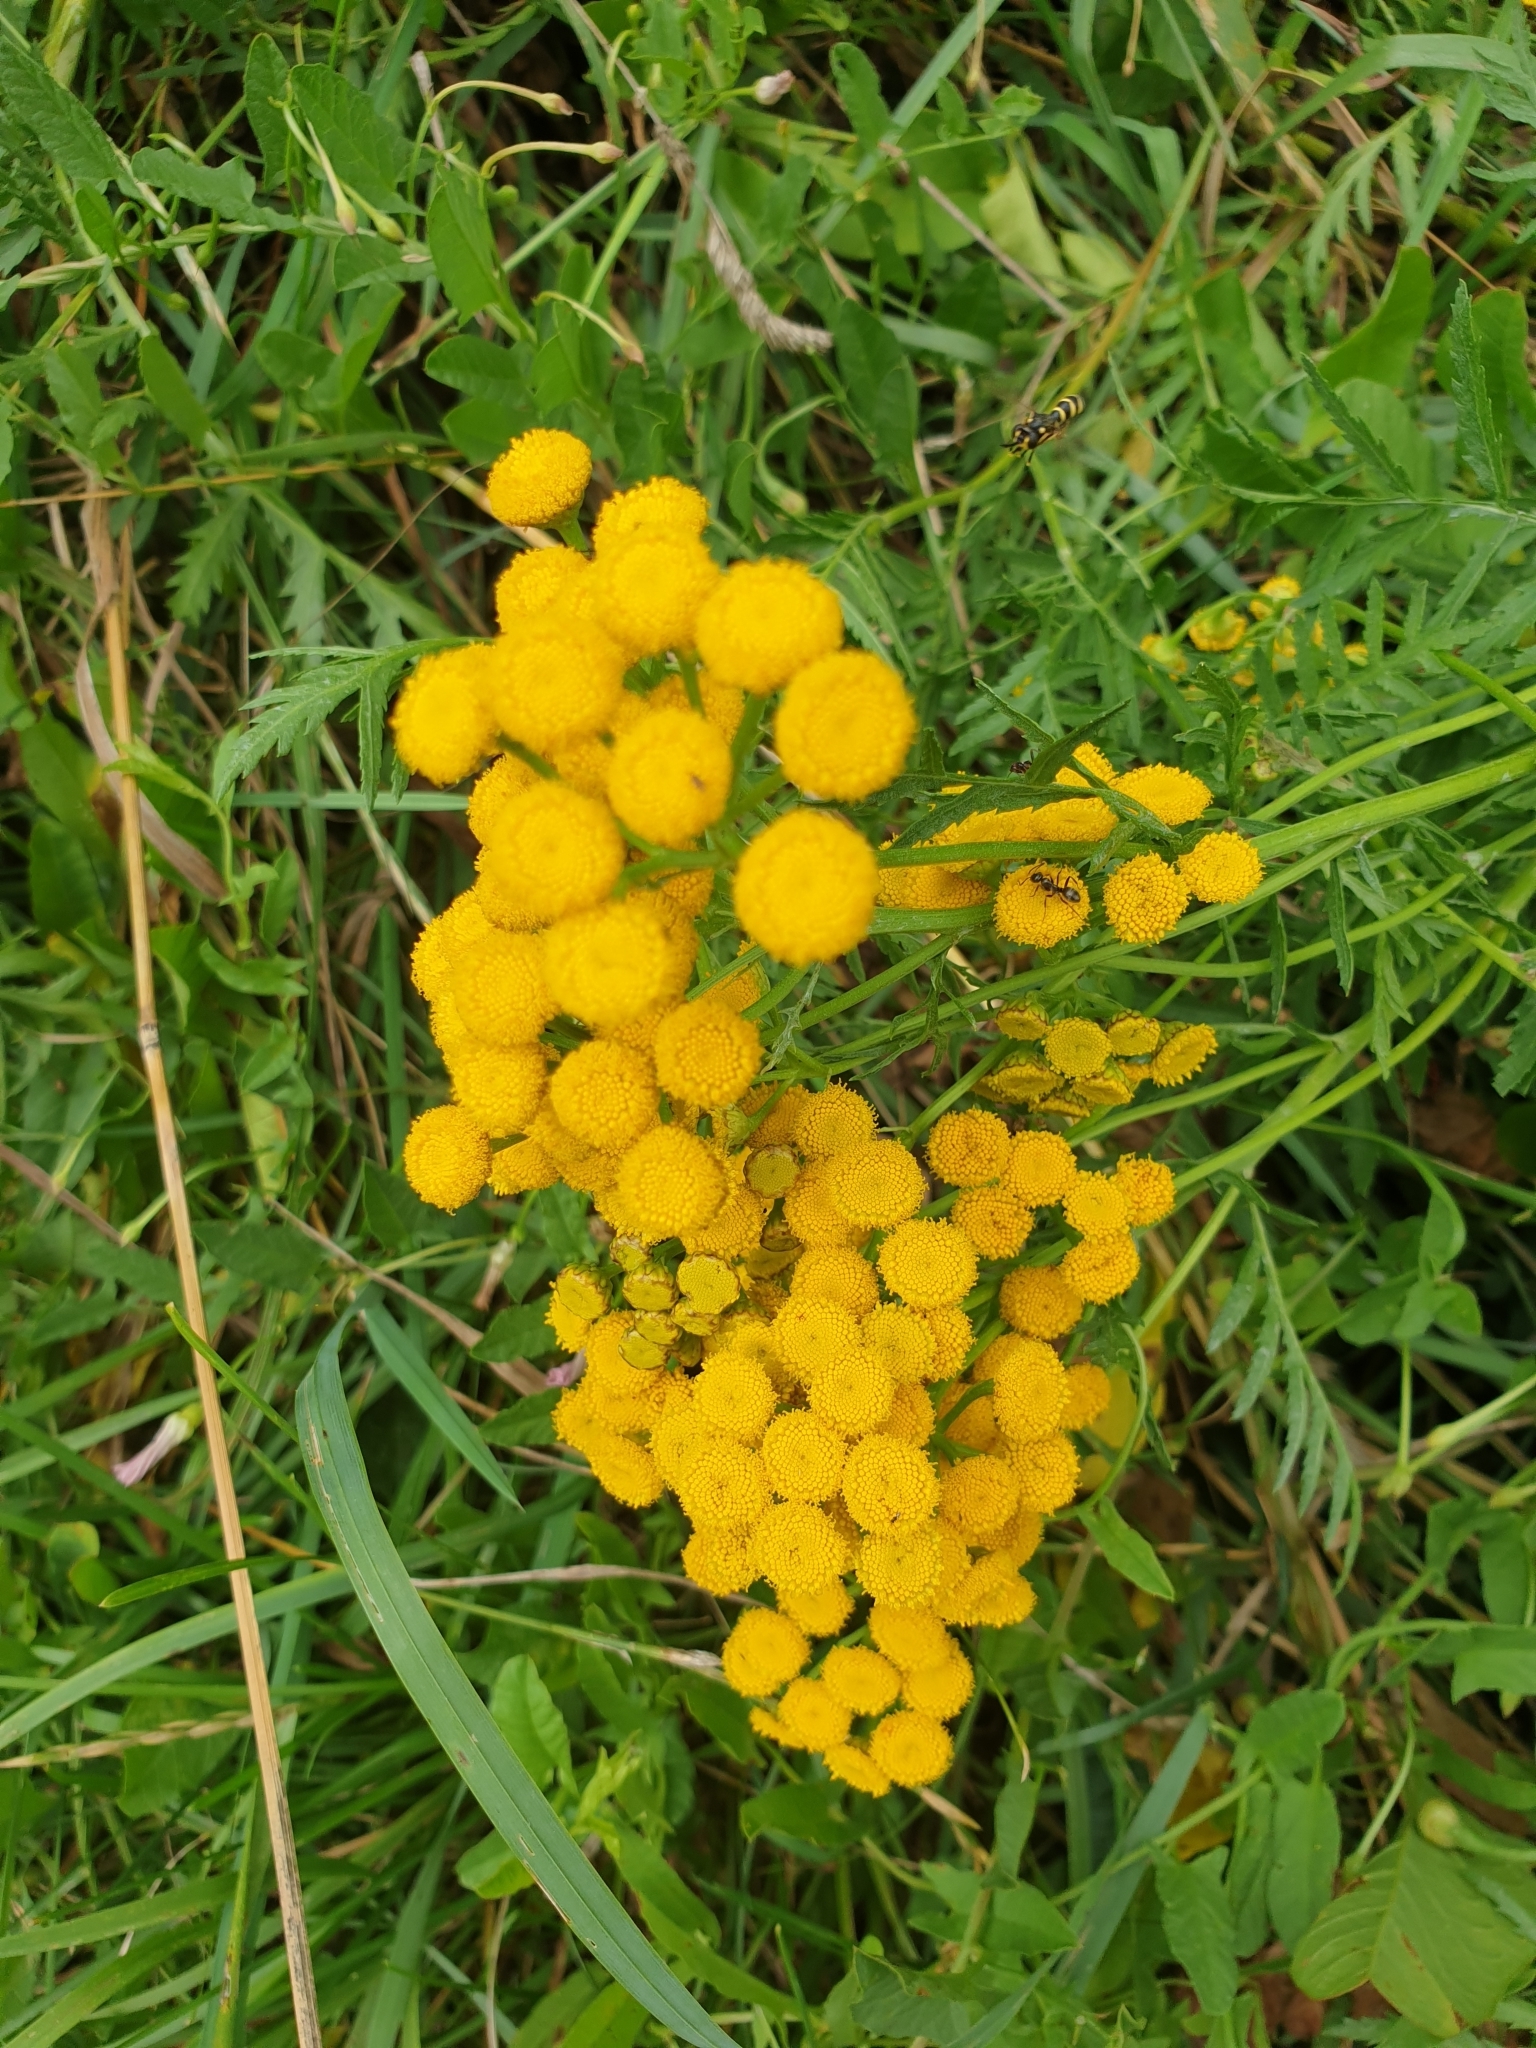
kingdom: Plantae
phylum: Tracheophyta
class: Magnoliopsida
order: Asterales
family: Asteraceae
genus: Tanacetum
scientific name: Tanacetum vulgare
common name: Common tansy
